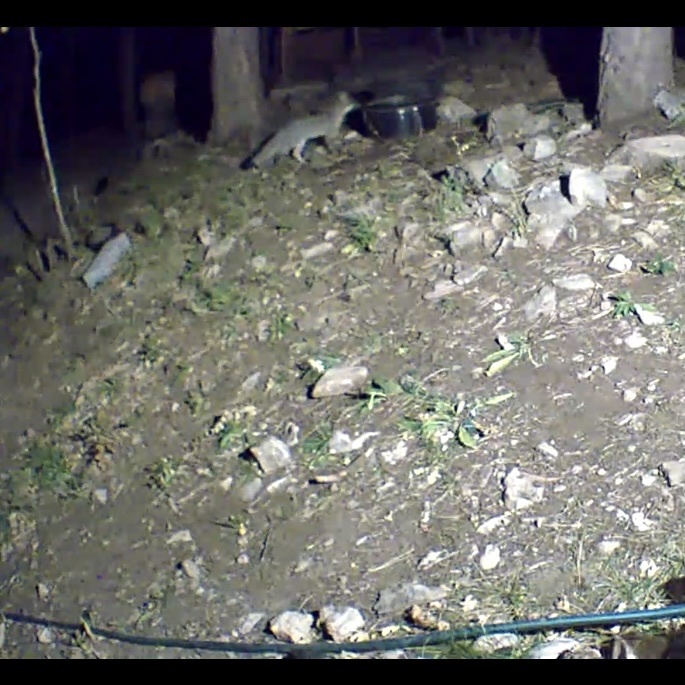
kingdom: Animalia
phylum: Chordata
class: Mammalia
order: Carnivora
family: Canidae
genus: Urocyon
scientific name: Urocyon cinereoargenteus
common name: Gray fox
